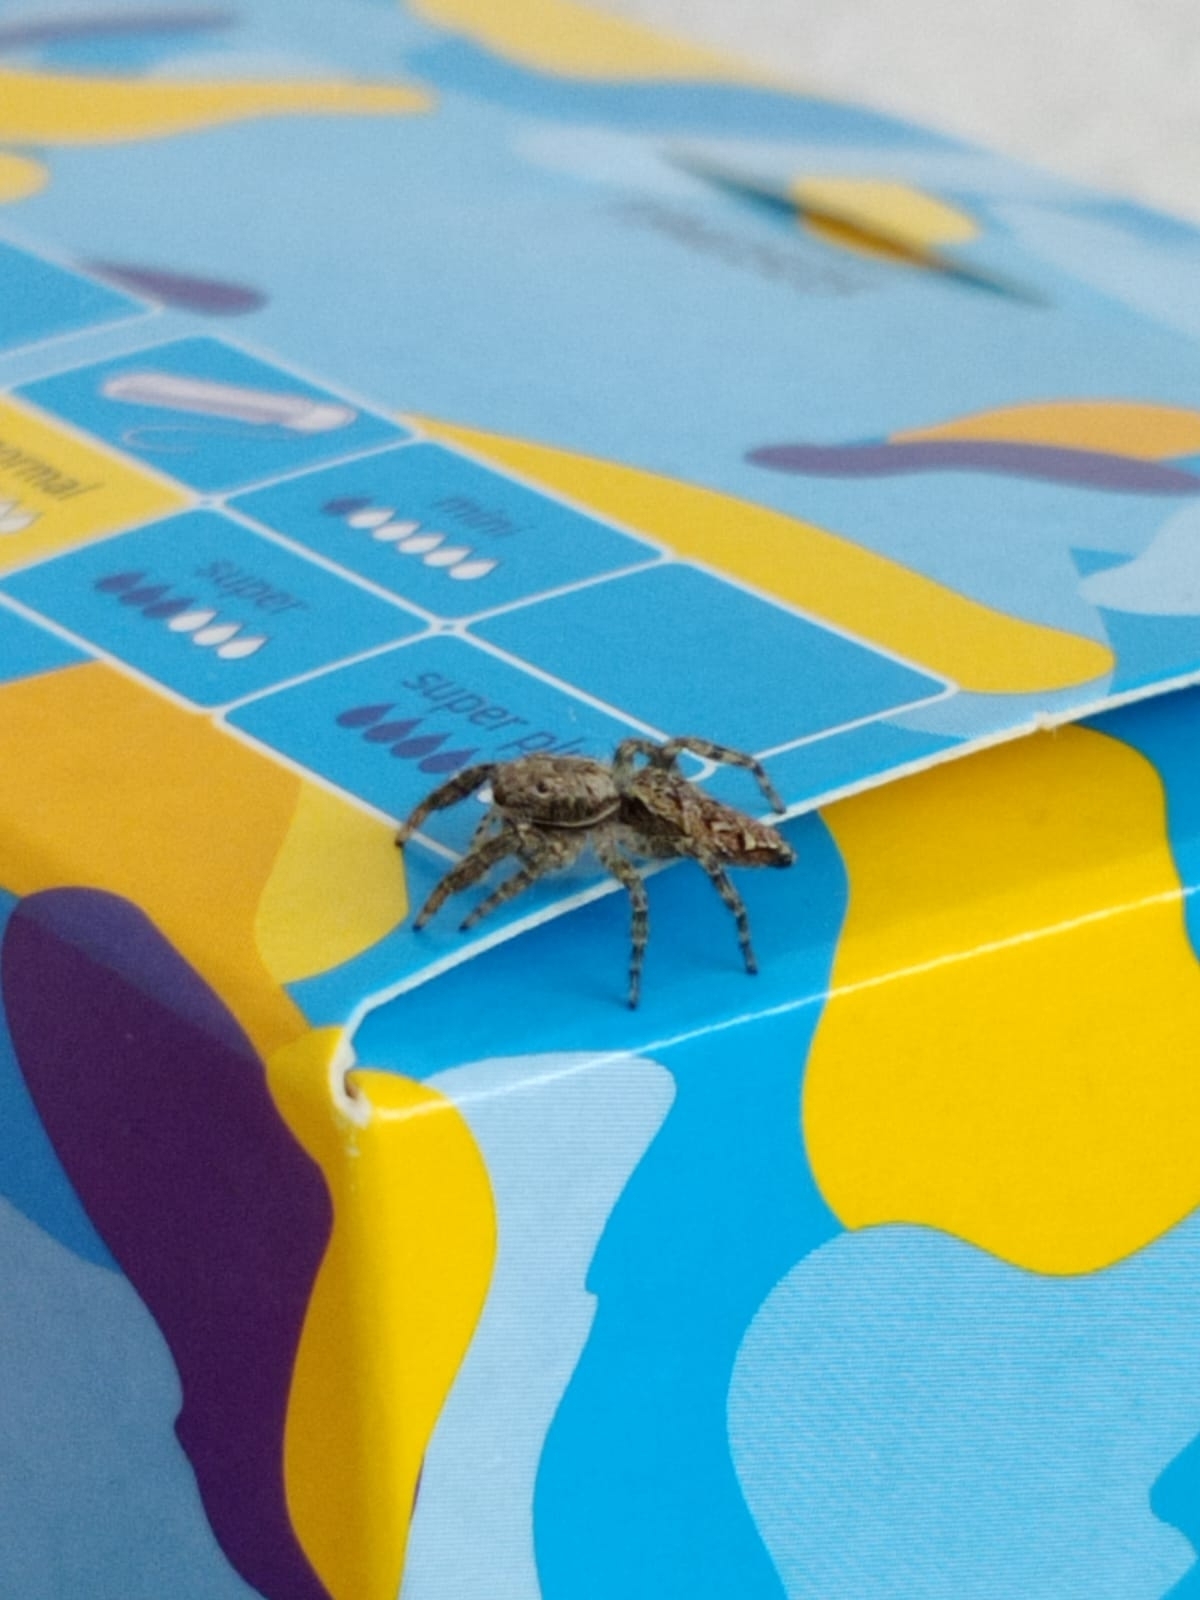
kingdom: Animalia
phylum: Arthropoda
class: Arachnida
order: Araneae
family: Salticidae
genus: Marpissa
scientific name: Marpissa muscosa
